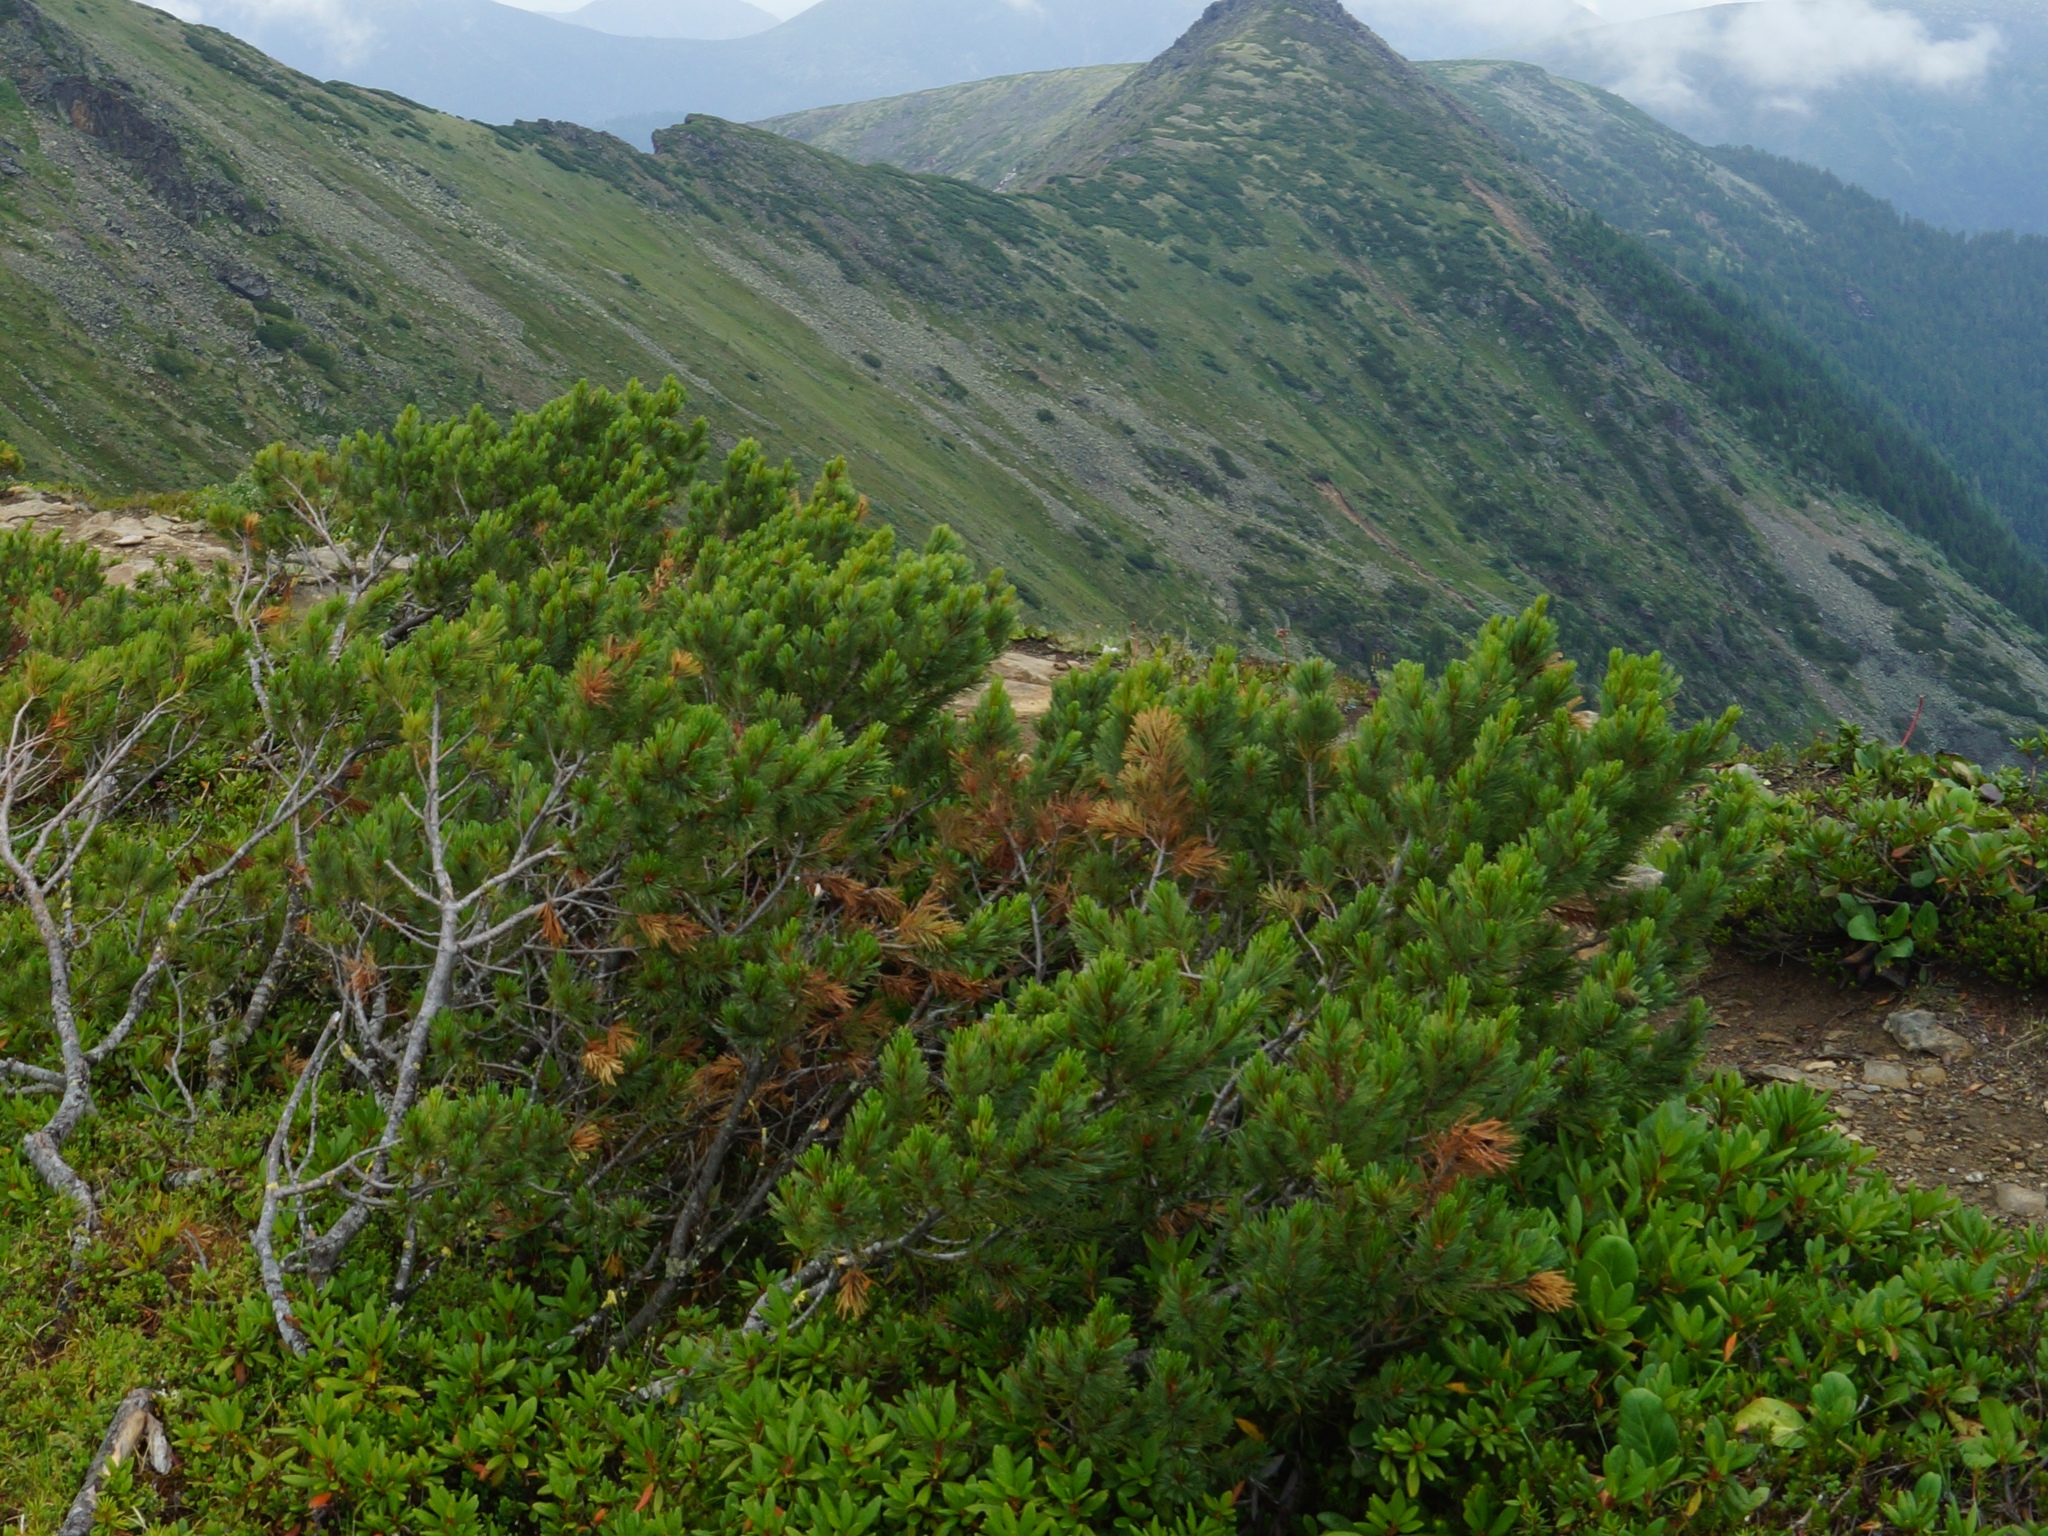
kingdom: Plantae
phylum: Tracheophyta
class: Pinopsida
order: Pinales
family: Pinaceae
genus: Pinus
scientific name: Pinus pumila
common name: Dwarf siberian pine
